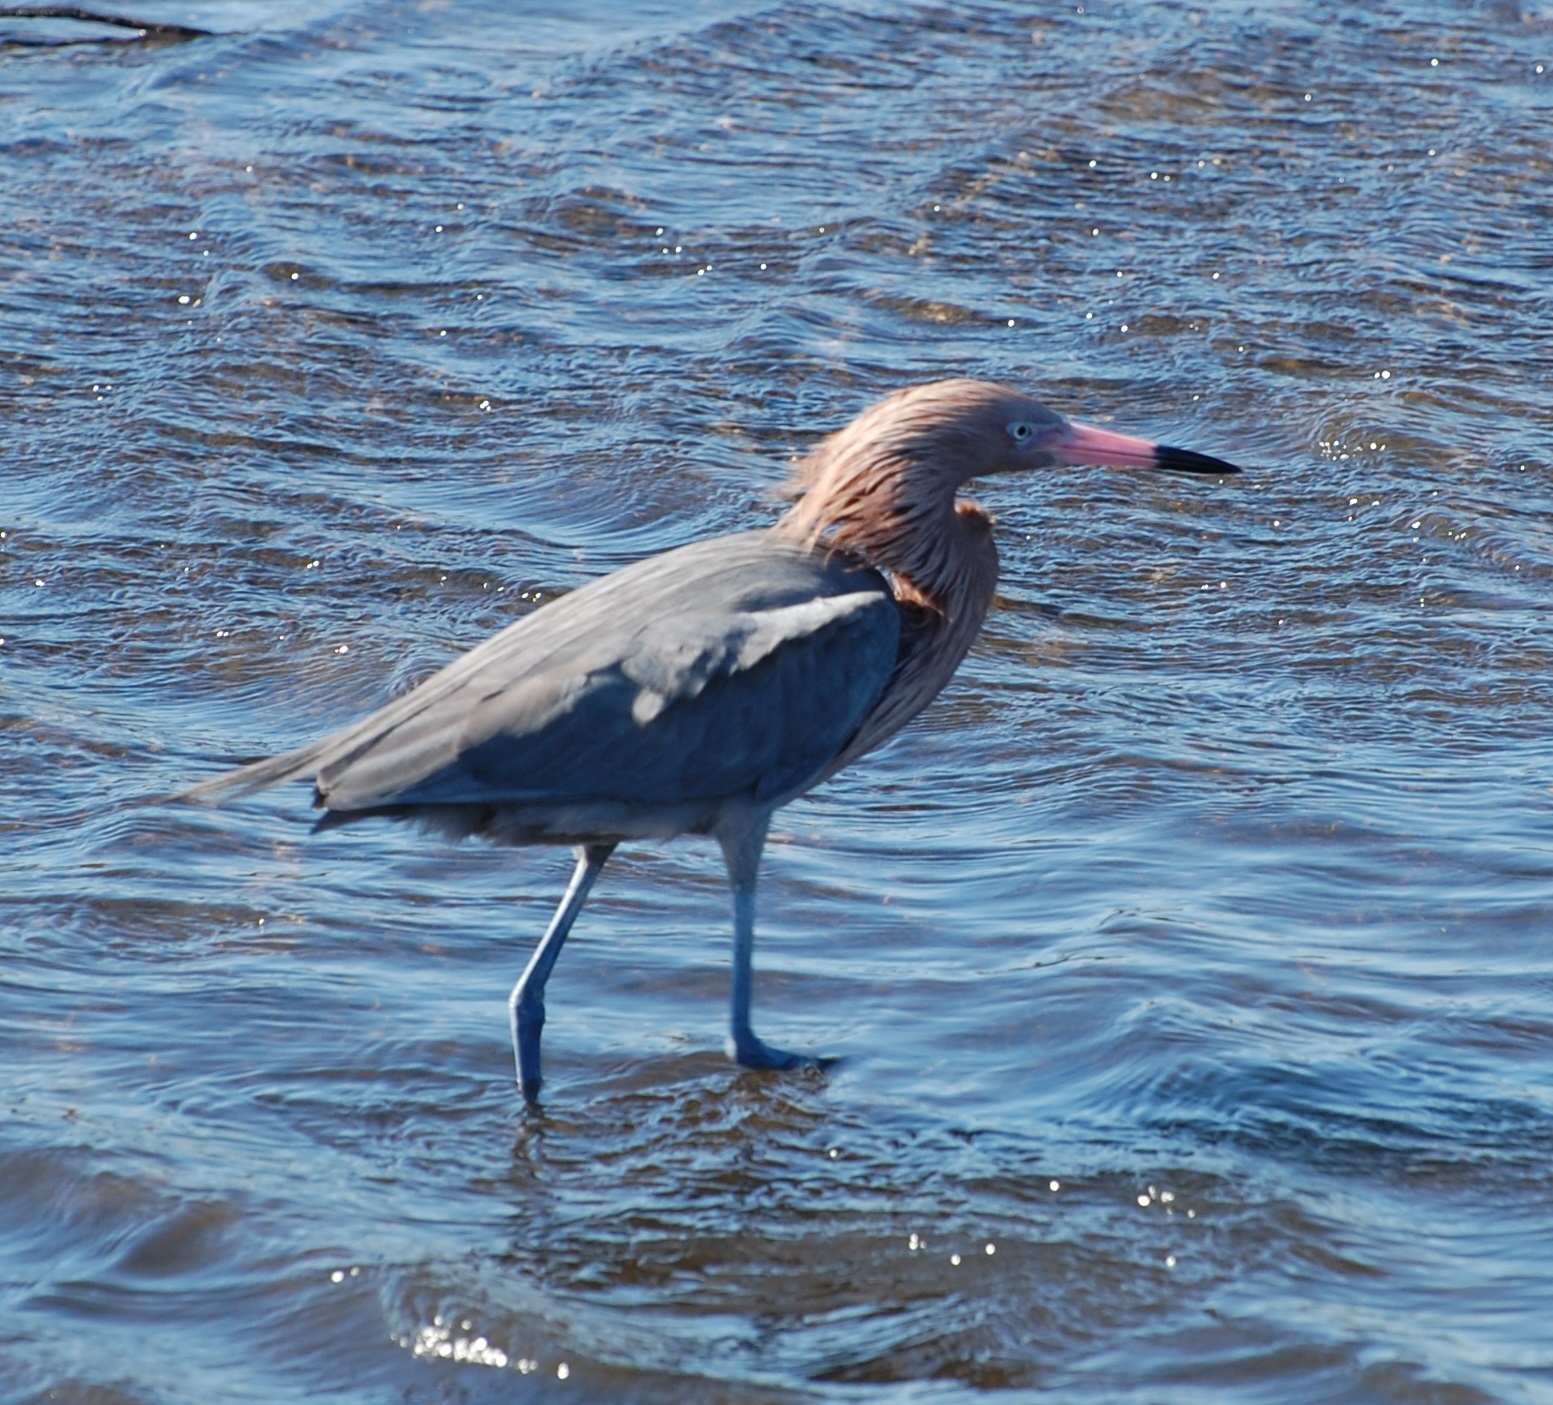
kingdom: Animalia
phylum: Chordata
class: Aves
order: Pelecaniformes
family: Ardeidae
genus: Egretta
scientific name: Egretta rufescens
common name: Reddish egret
